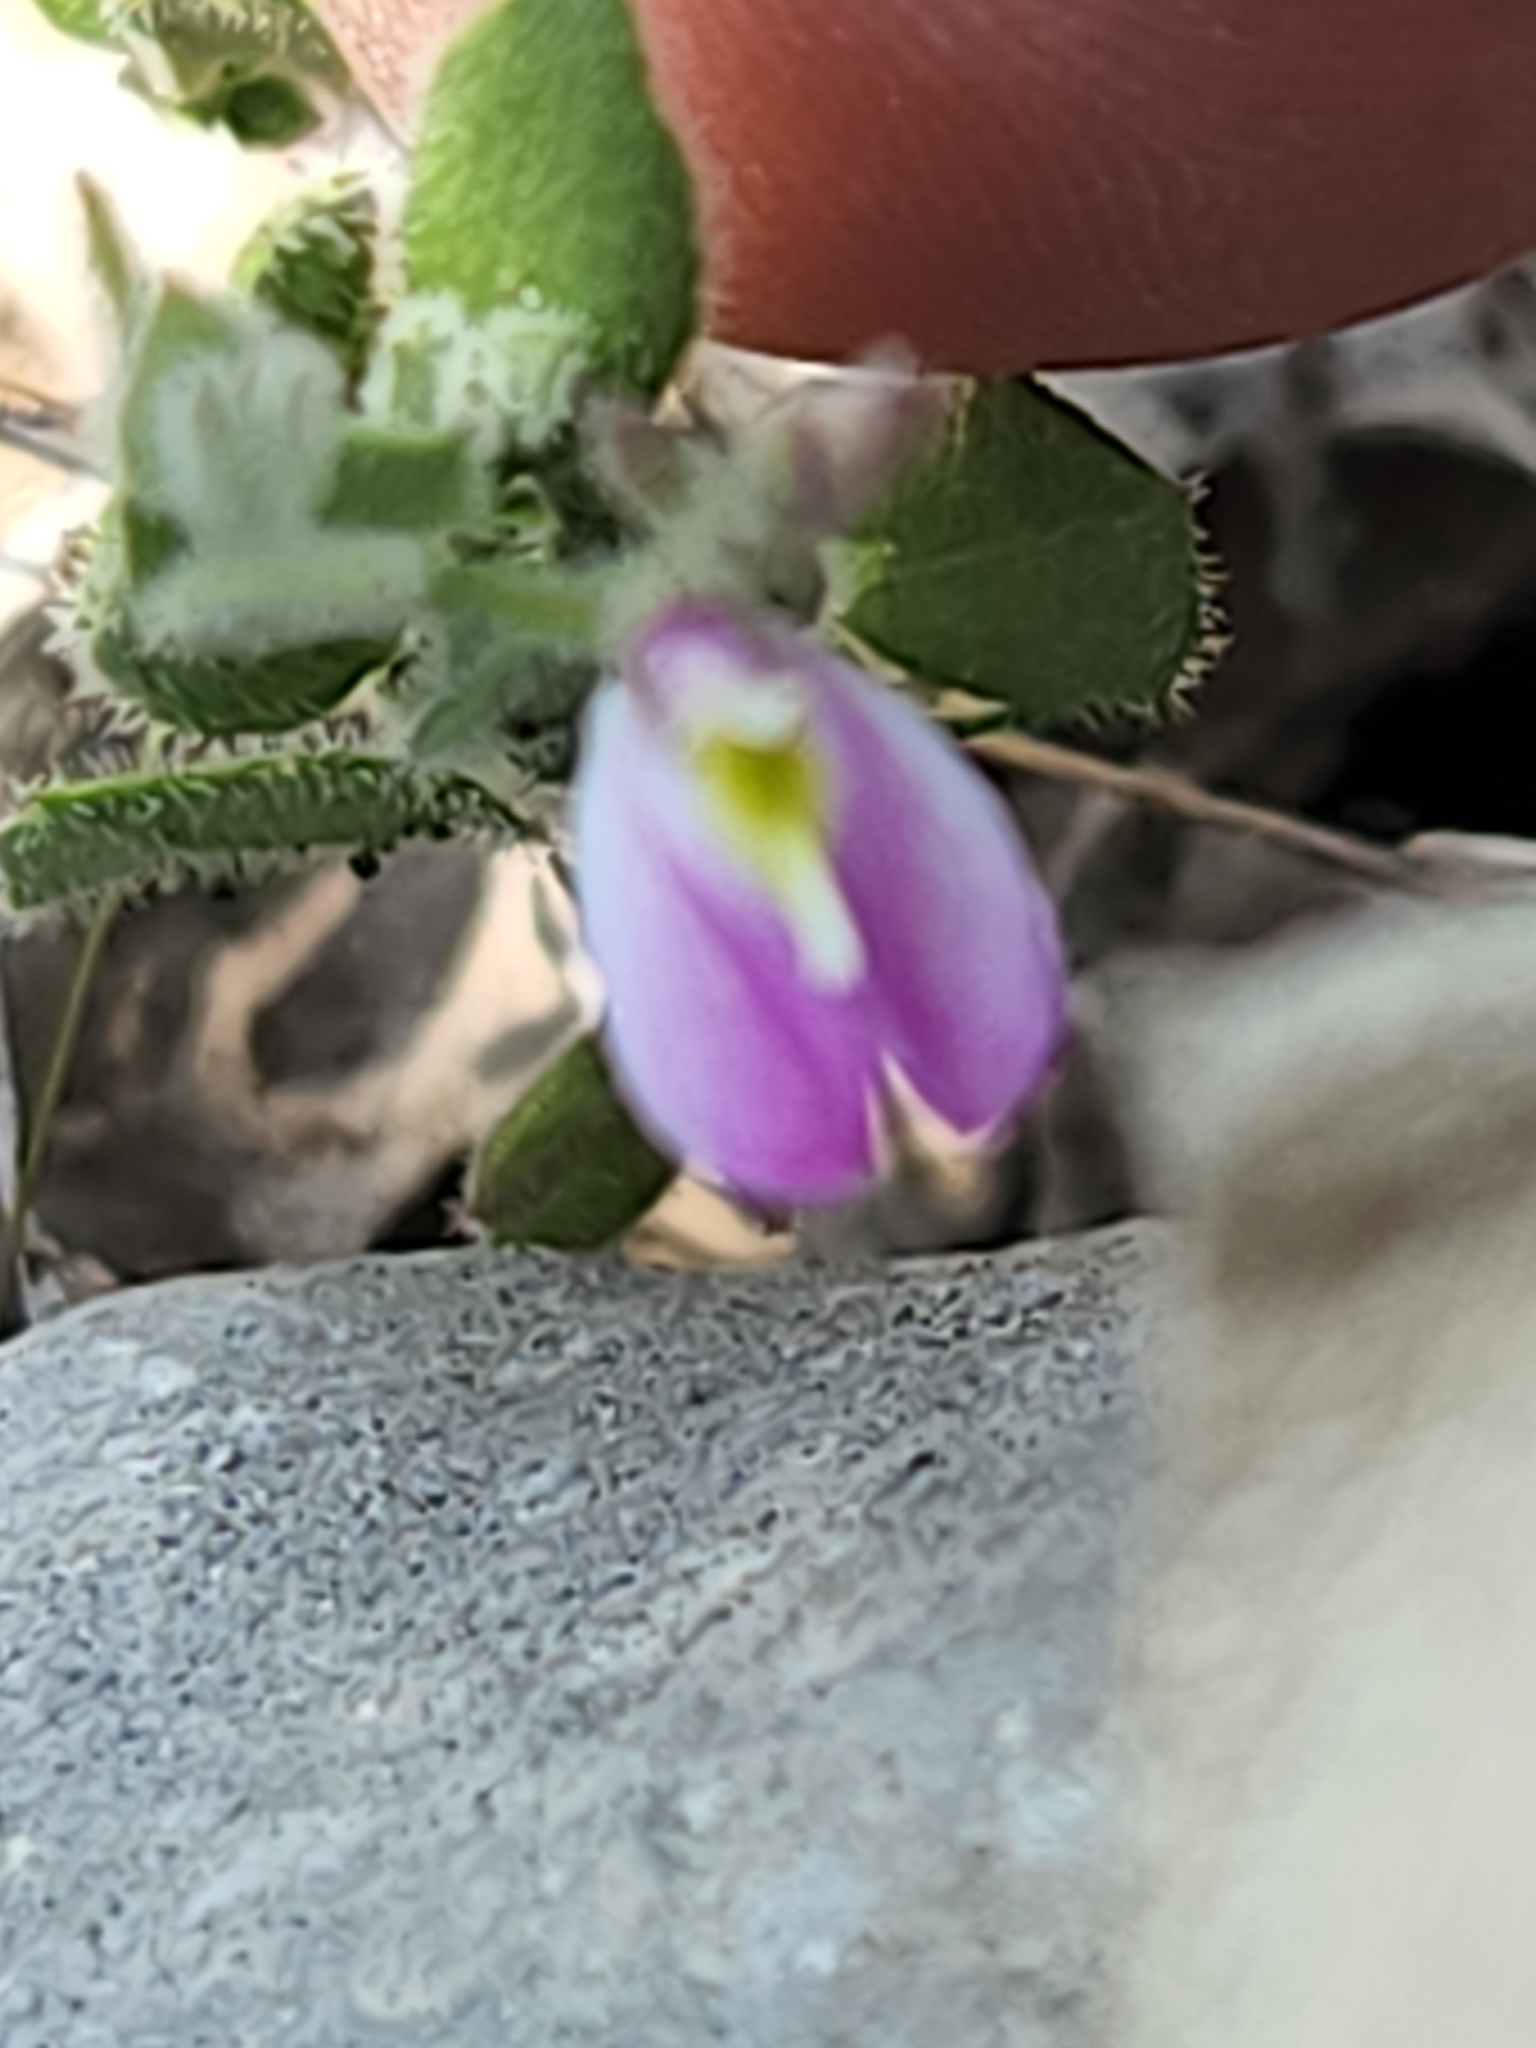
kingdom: Plantae
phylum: Tracheophyta
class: Magnoliopsida
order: Fabales
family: Polygalaceae
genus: Rhinotropis
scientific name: Rhinotropis lindheimeri
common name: Shrubby milkwort
